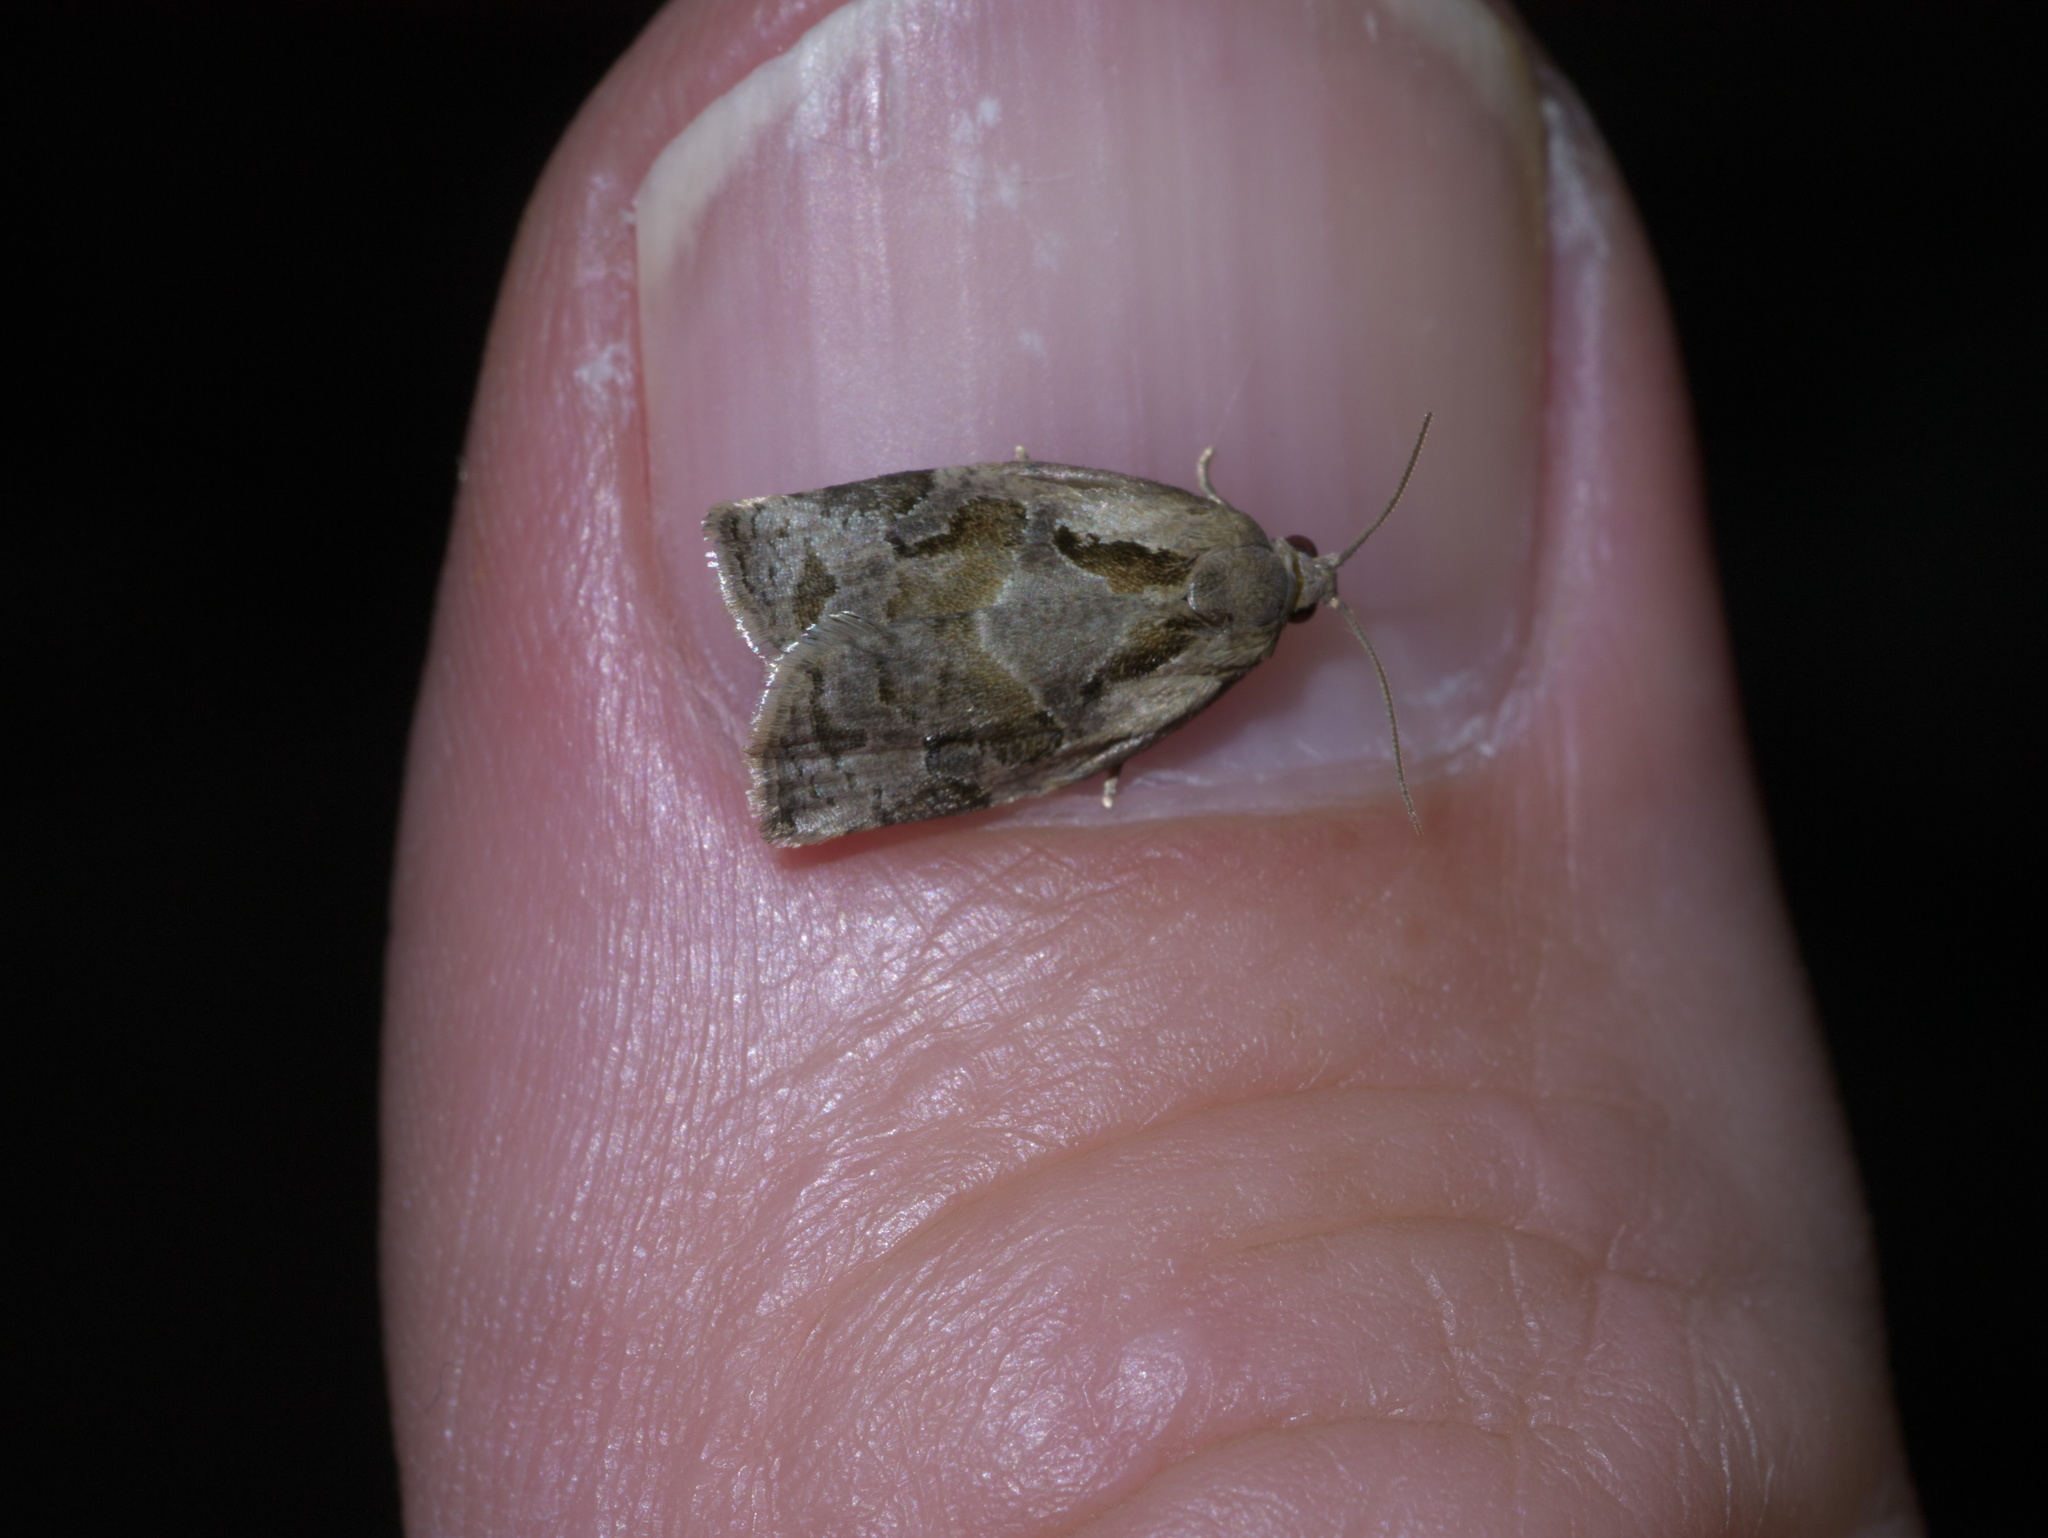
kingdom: Animalia
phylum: Arthropoda
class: Insecta
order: Lepidoptera
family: Tortricidae
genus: Archips
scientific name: Archips grisea
